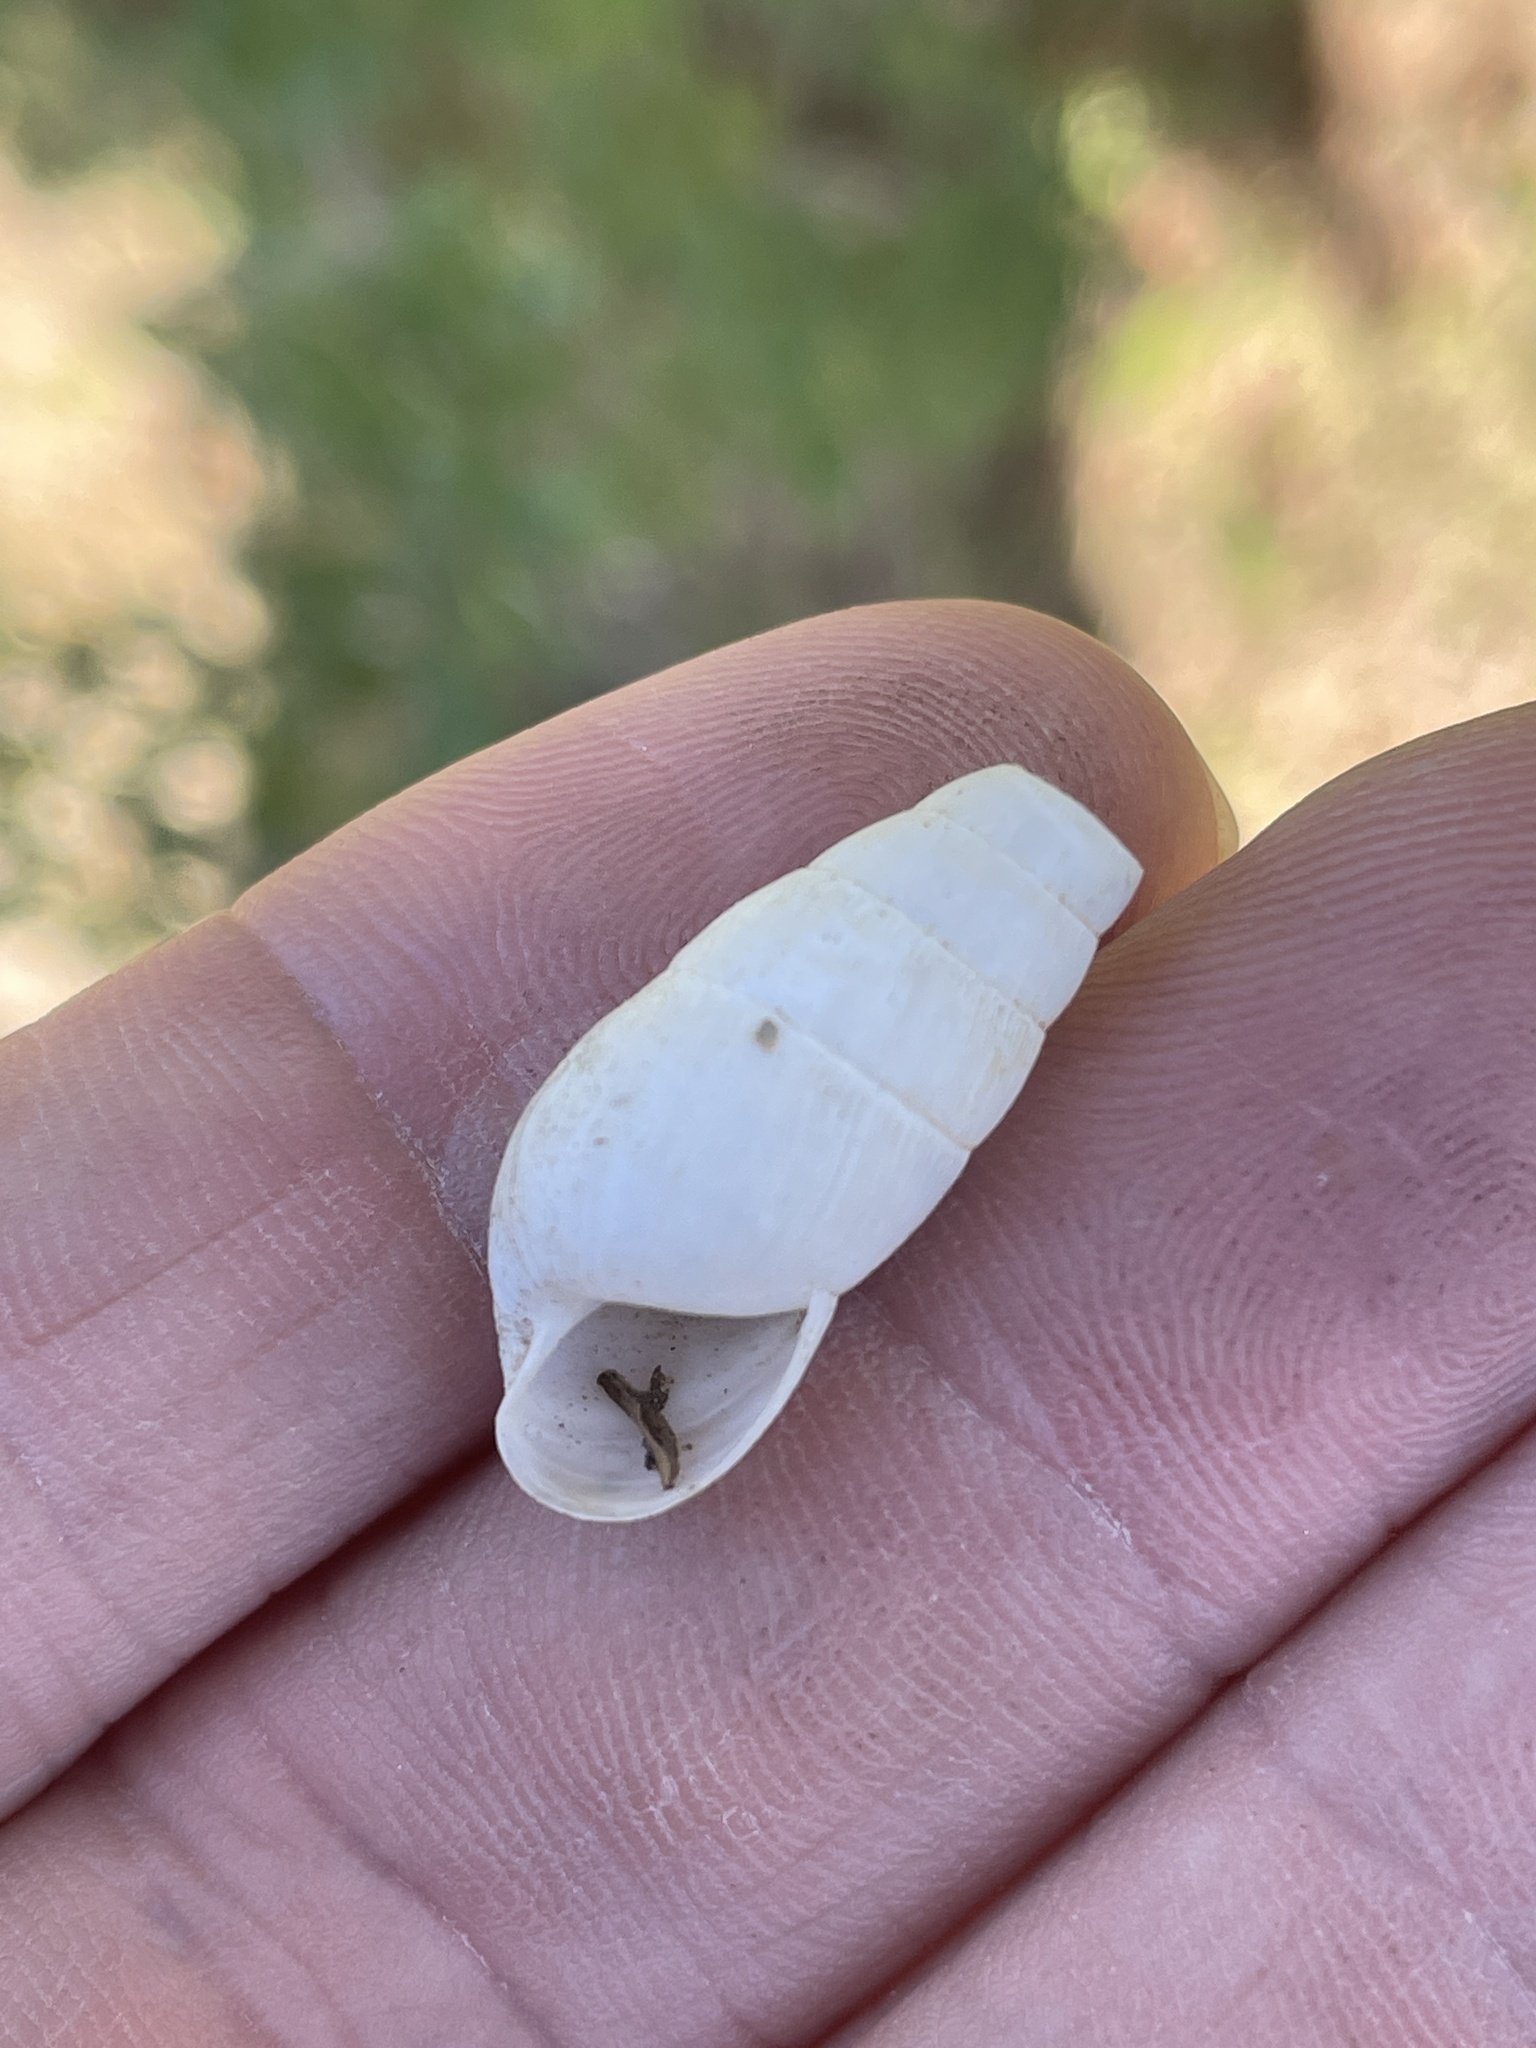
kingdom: Animalia
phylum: Mollusca
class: Gastropoda
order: Stylommatophora
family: Achatinidae
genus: Rumina
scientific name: Rumina decollata
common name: Decollate snail
